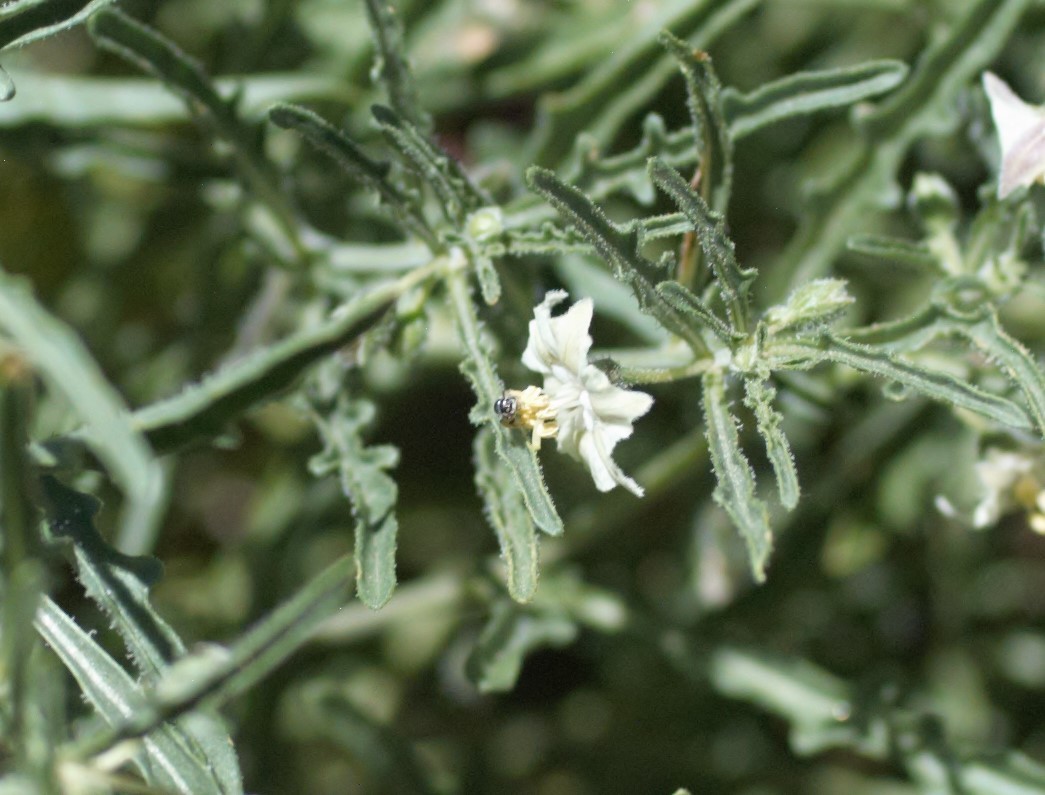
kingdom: Animalia
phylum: Arthropoda
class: Insecta
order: Hymenoptera
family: Andrenidae
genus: Perdita
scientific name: Perdita chamaesarachae
